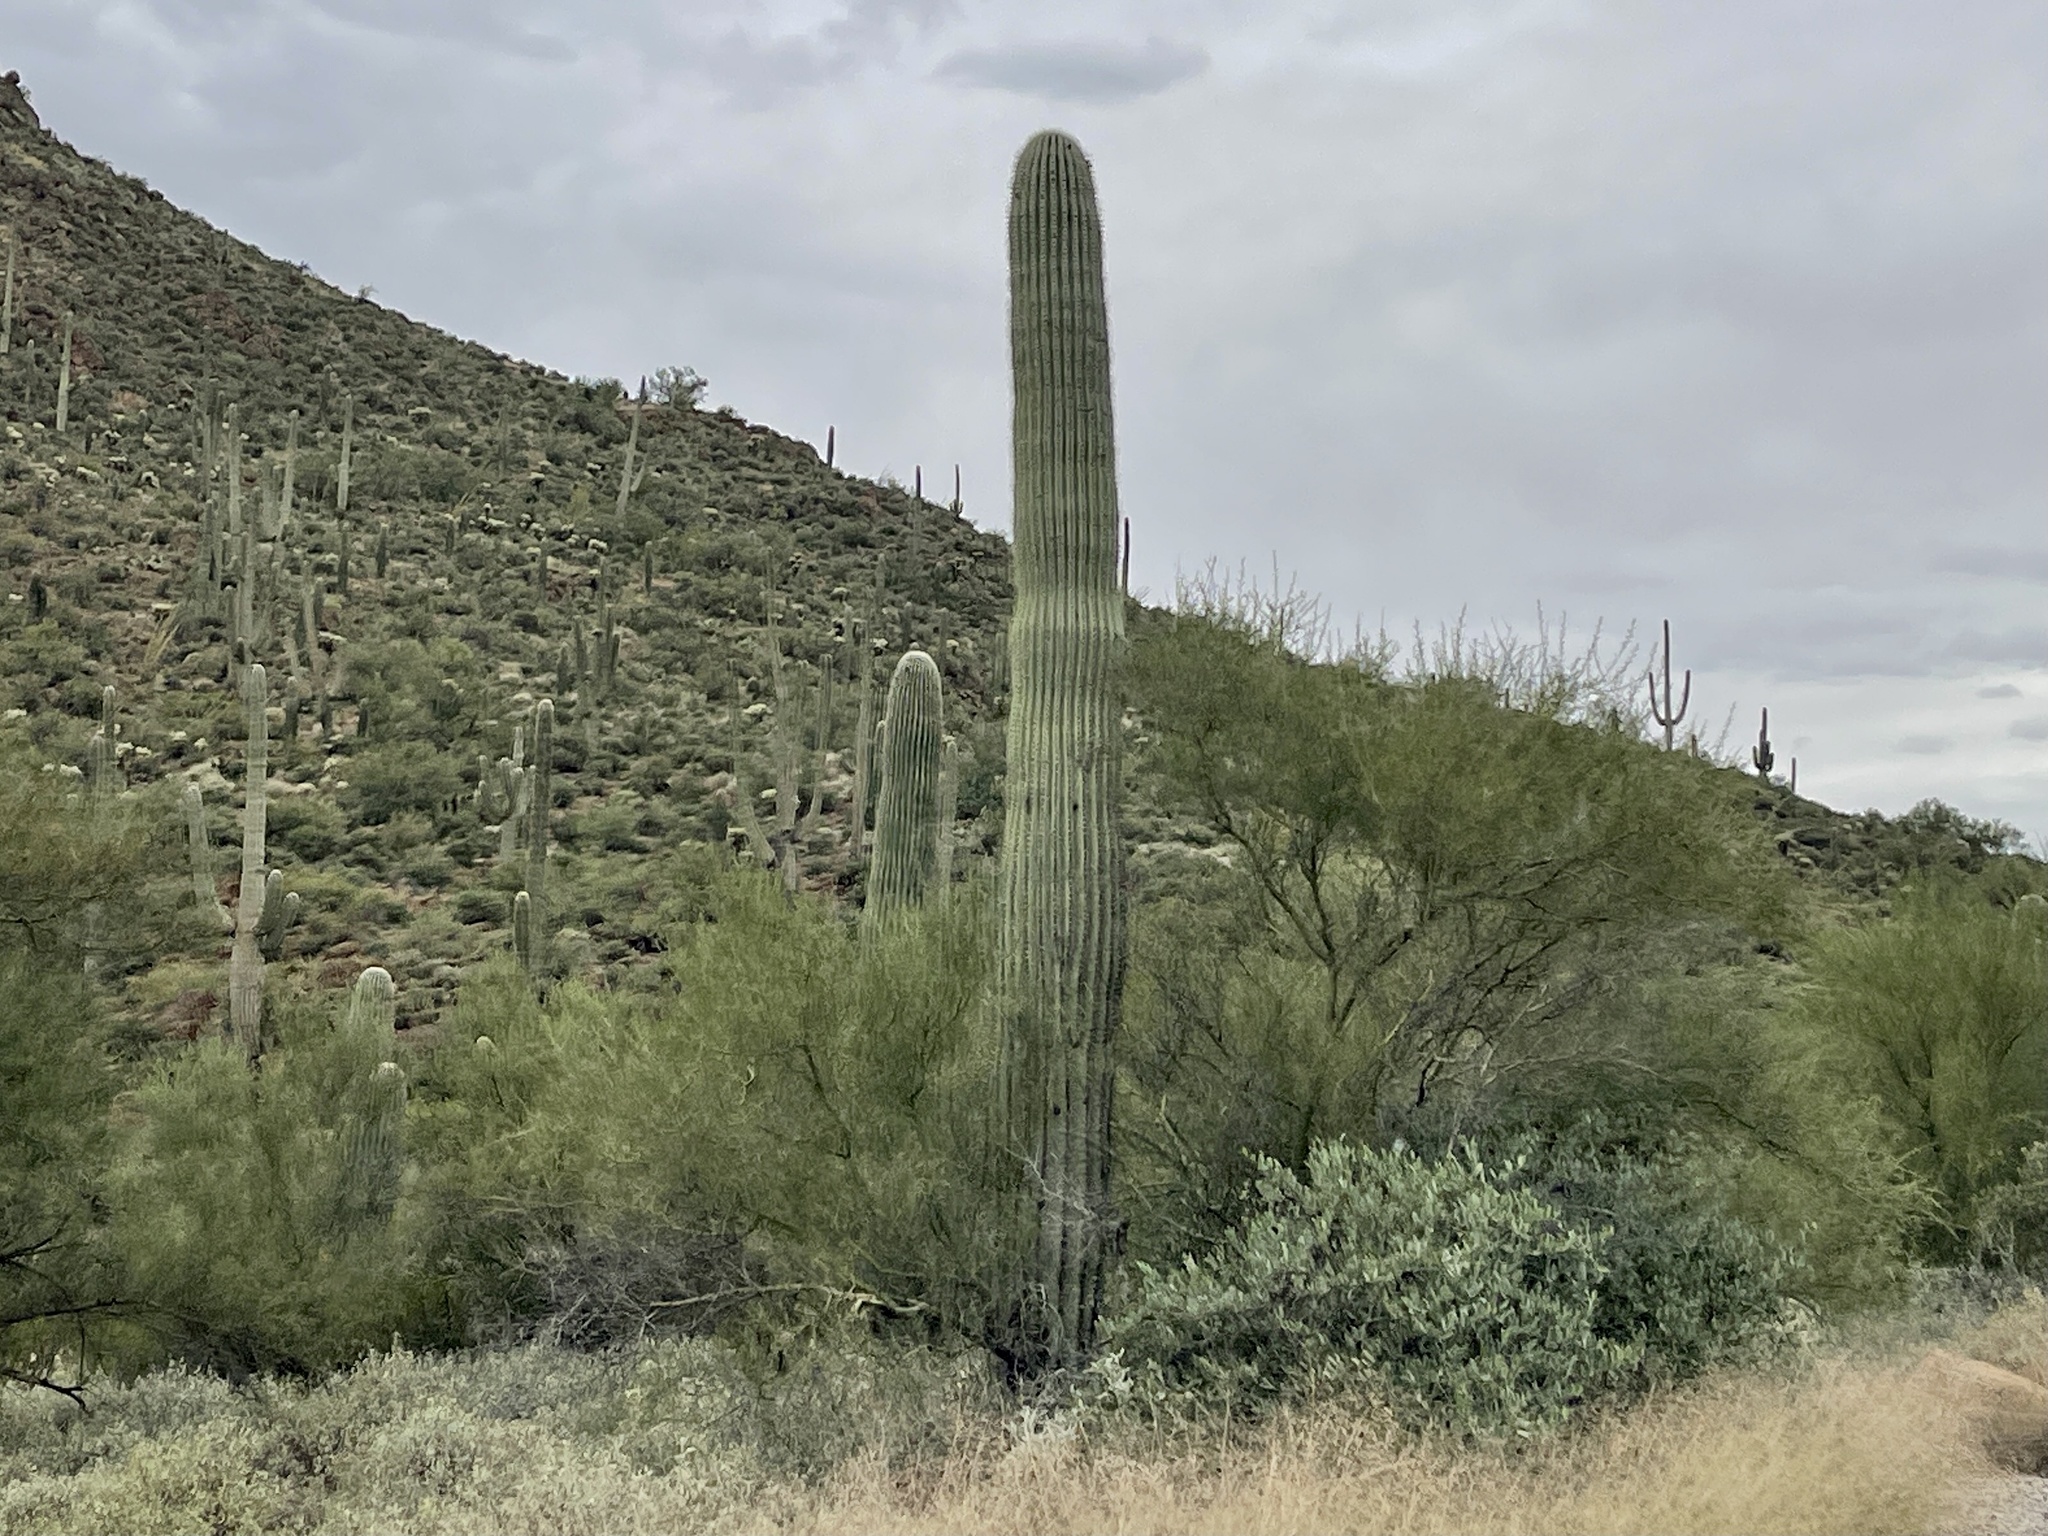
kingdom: Plantae
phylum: Tracheophyta
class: Magnoliopsida
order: Caryophyllales
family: Cactaceae
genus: Carnegiea
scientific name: Carnegiea gigantea
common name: Saguaro
